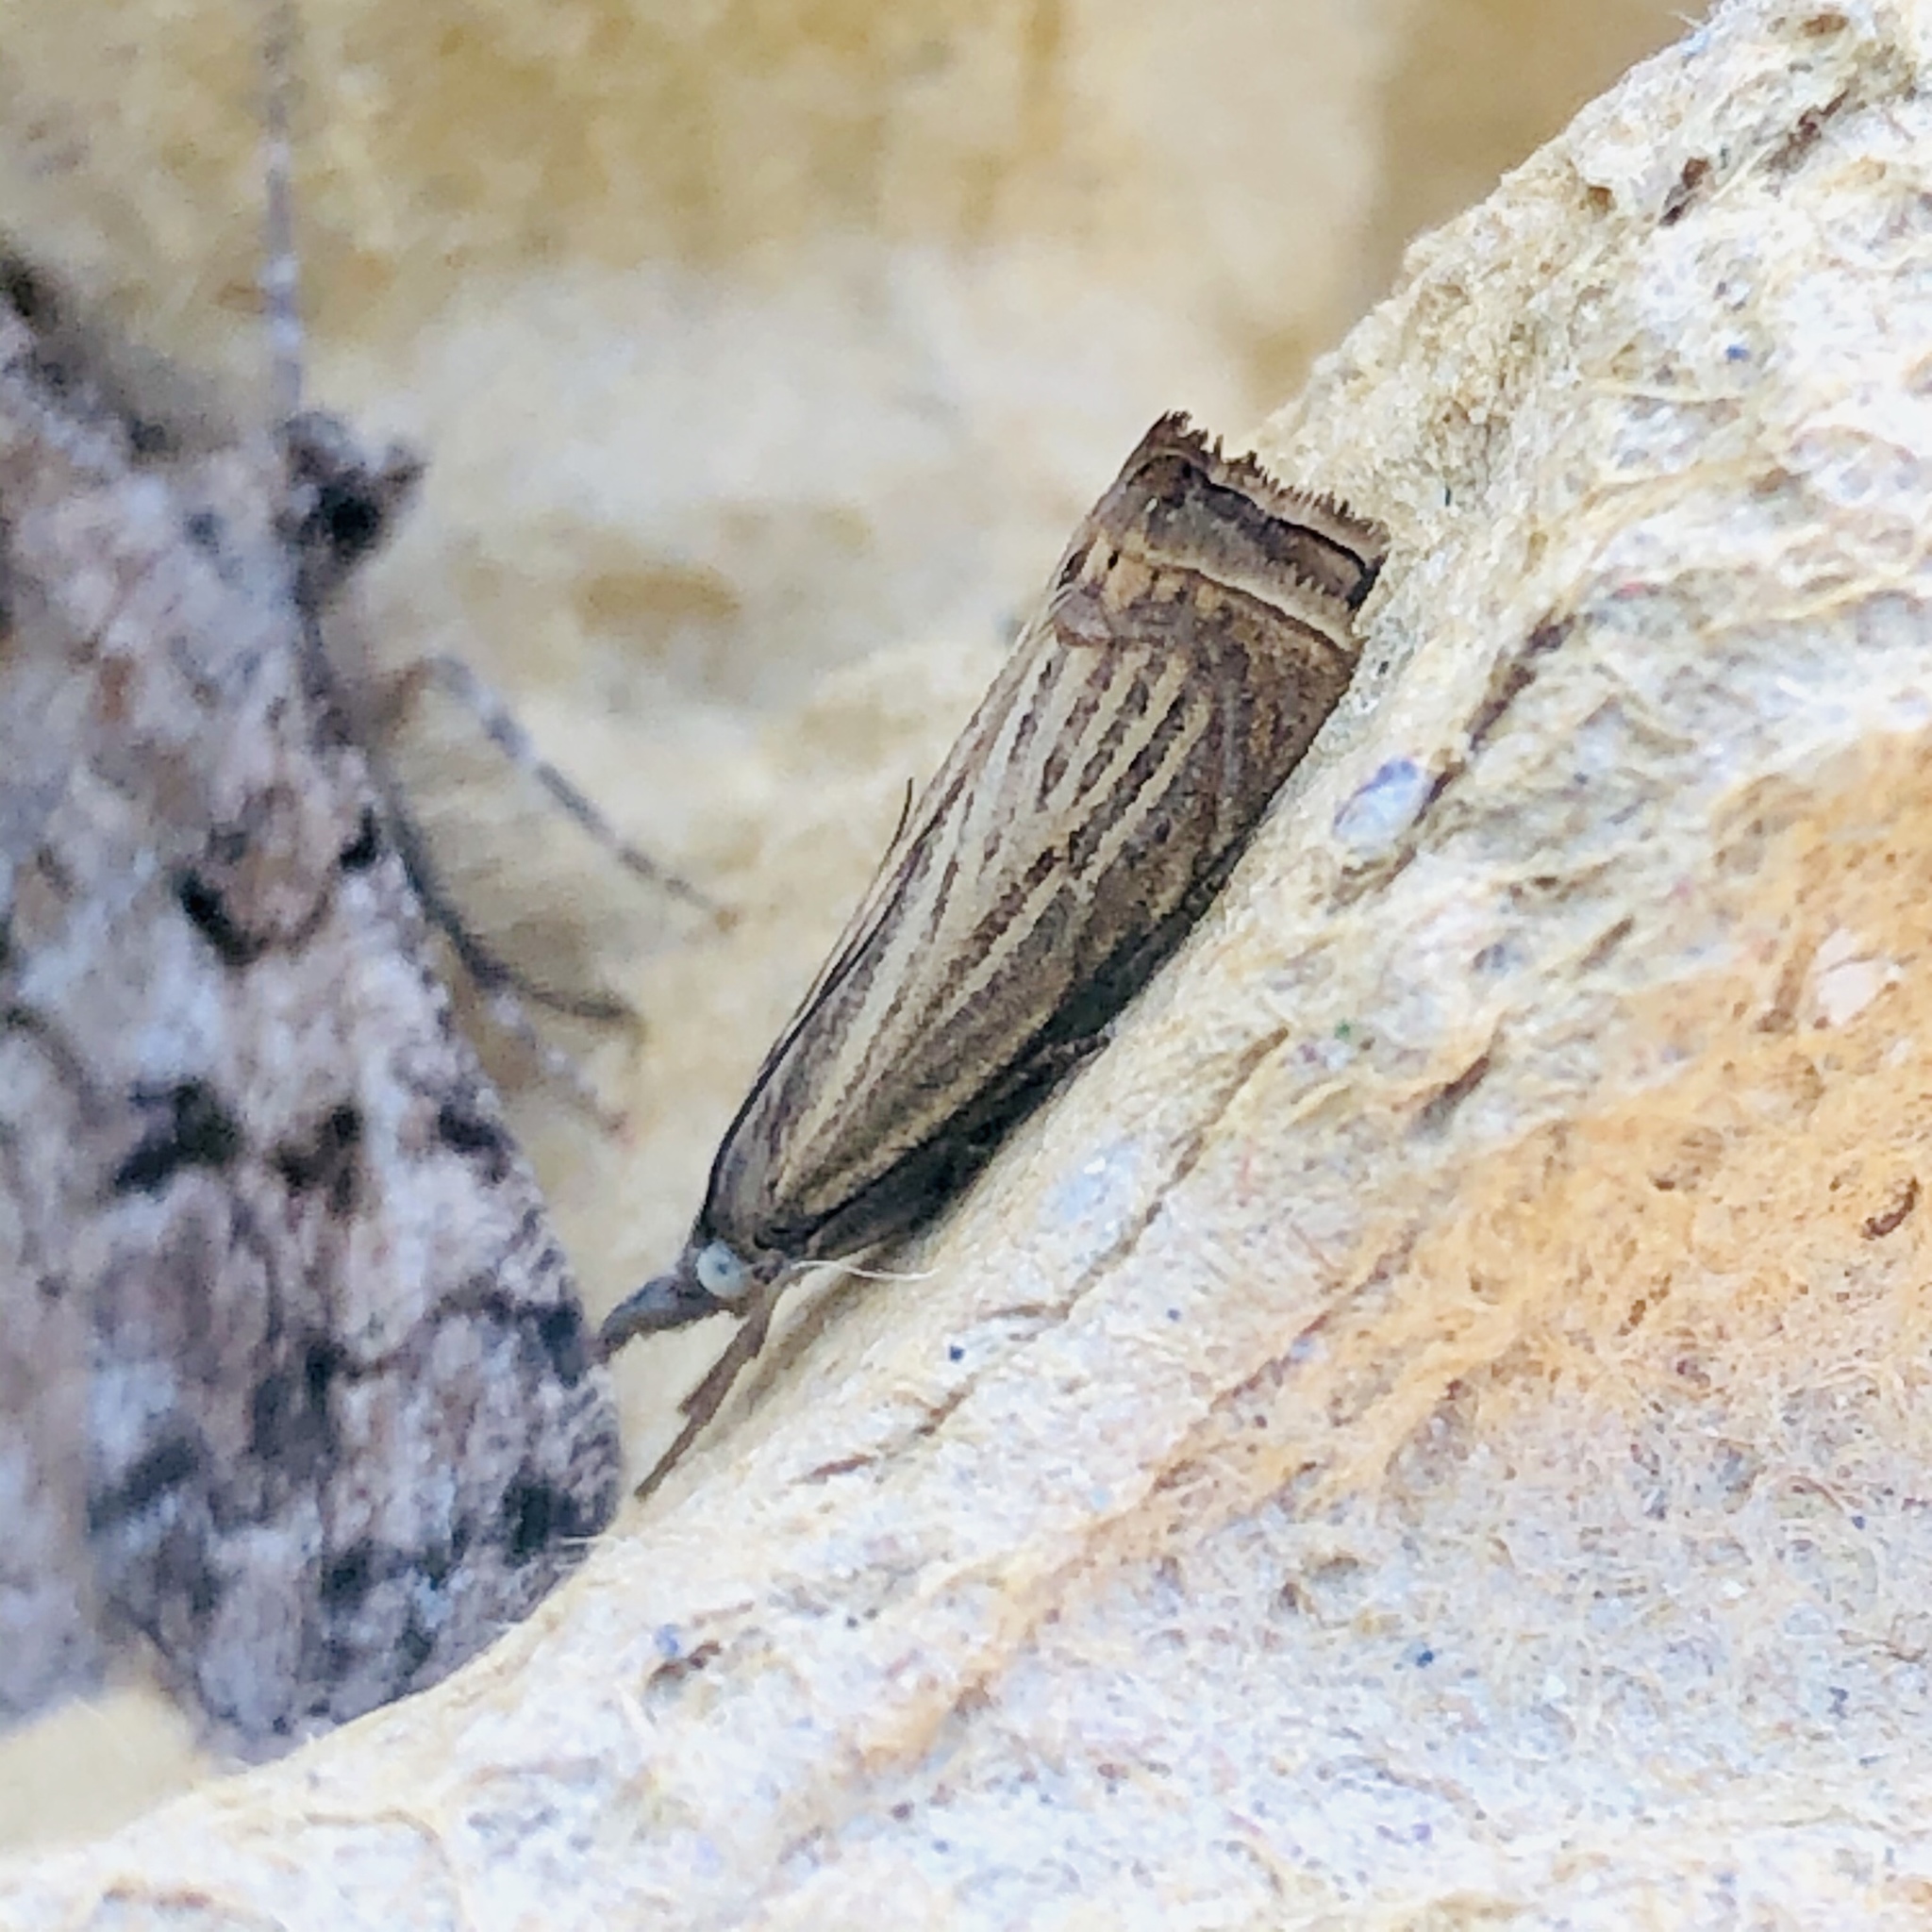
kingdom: Animalia
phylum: Arthropoda
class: Insecta
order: Lepidoptera
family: Crambidae
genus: Chrysoteuchia
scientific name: Chrysoteuchia culmella
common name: Garden grass-veneer
